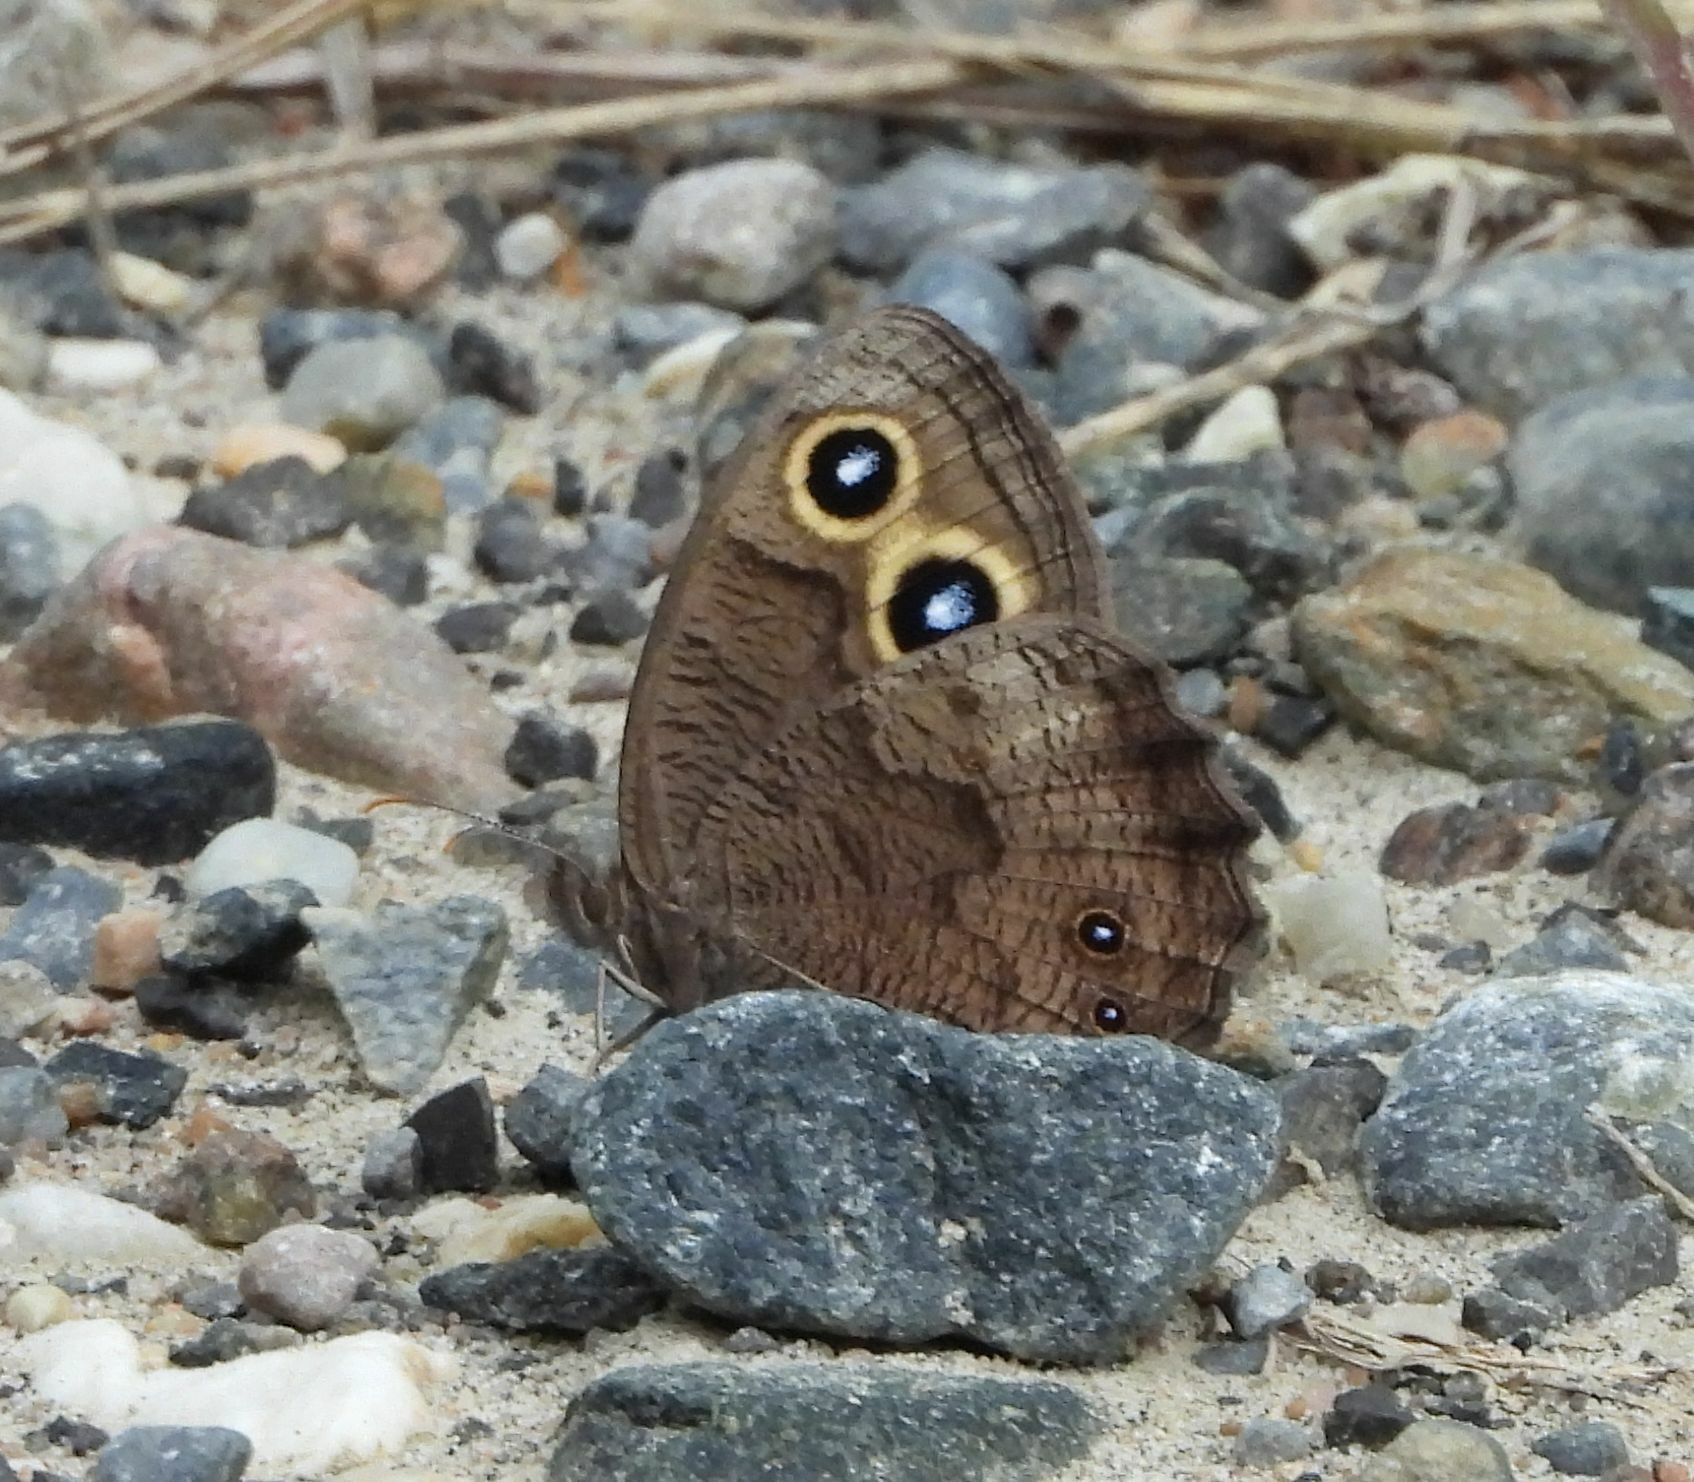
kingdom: Animalia
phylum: Arthropoda
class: Insecta
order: Lepidoptera
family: Nymphalidae
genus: Cercyonis
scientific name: Cercyonis pegala
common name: Common wood-nymph
